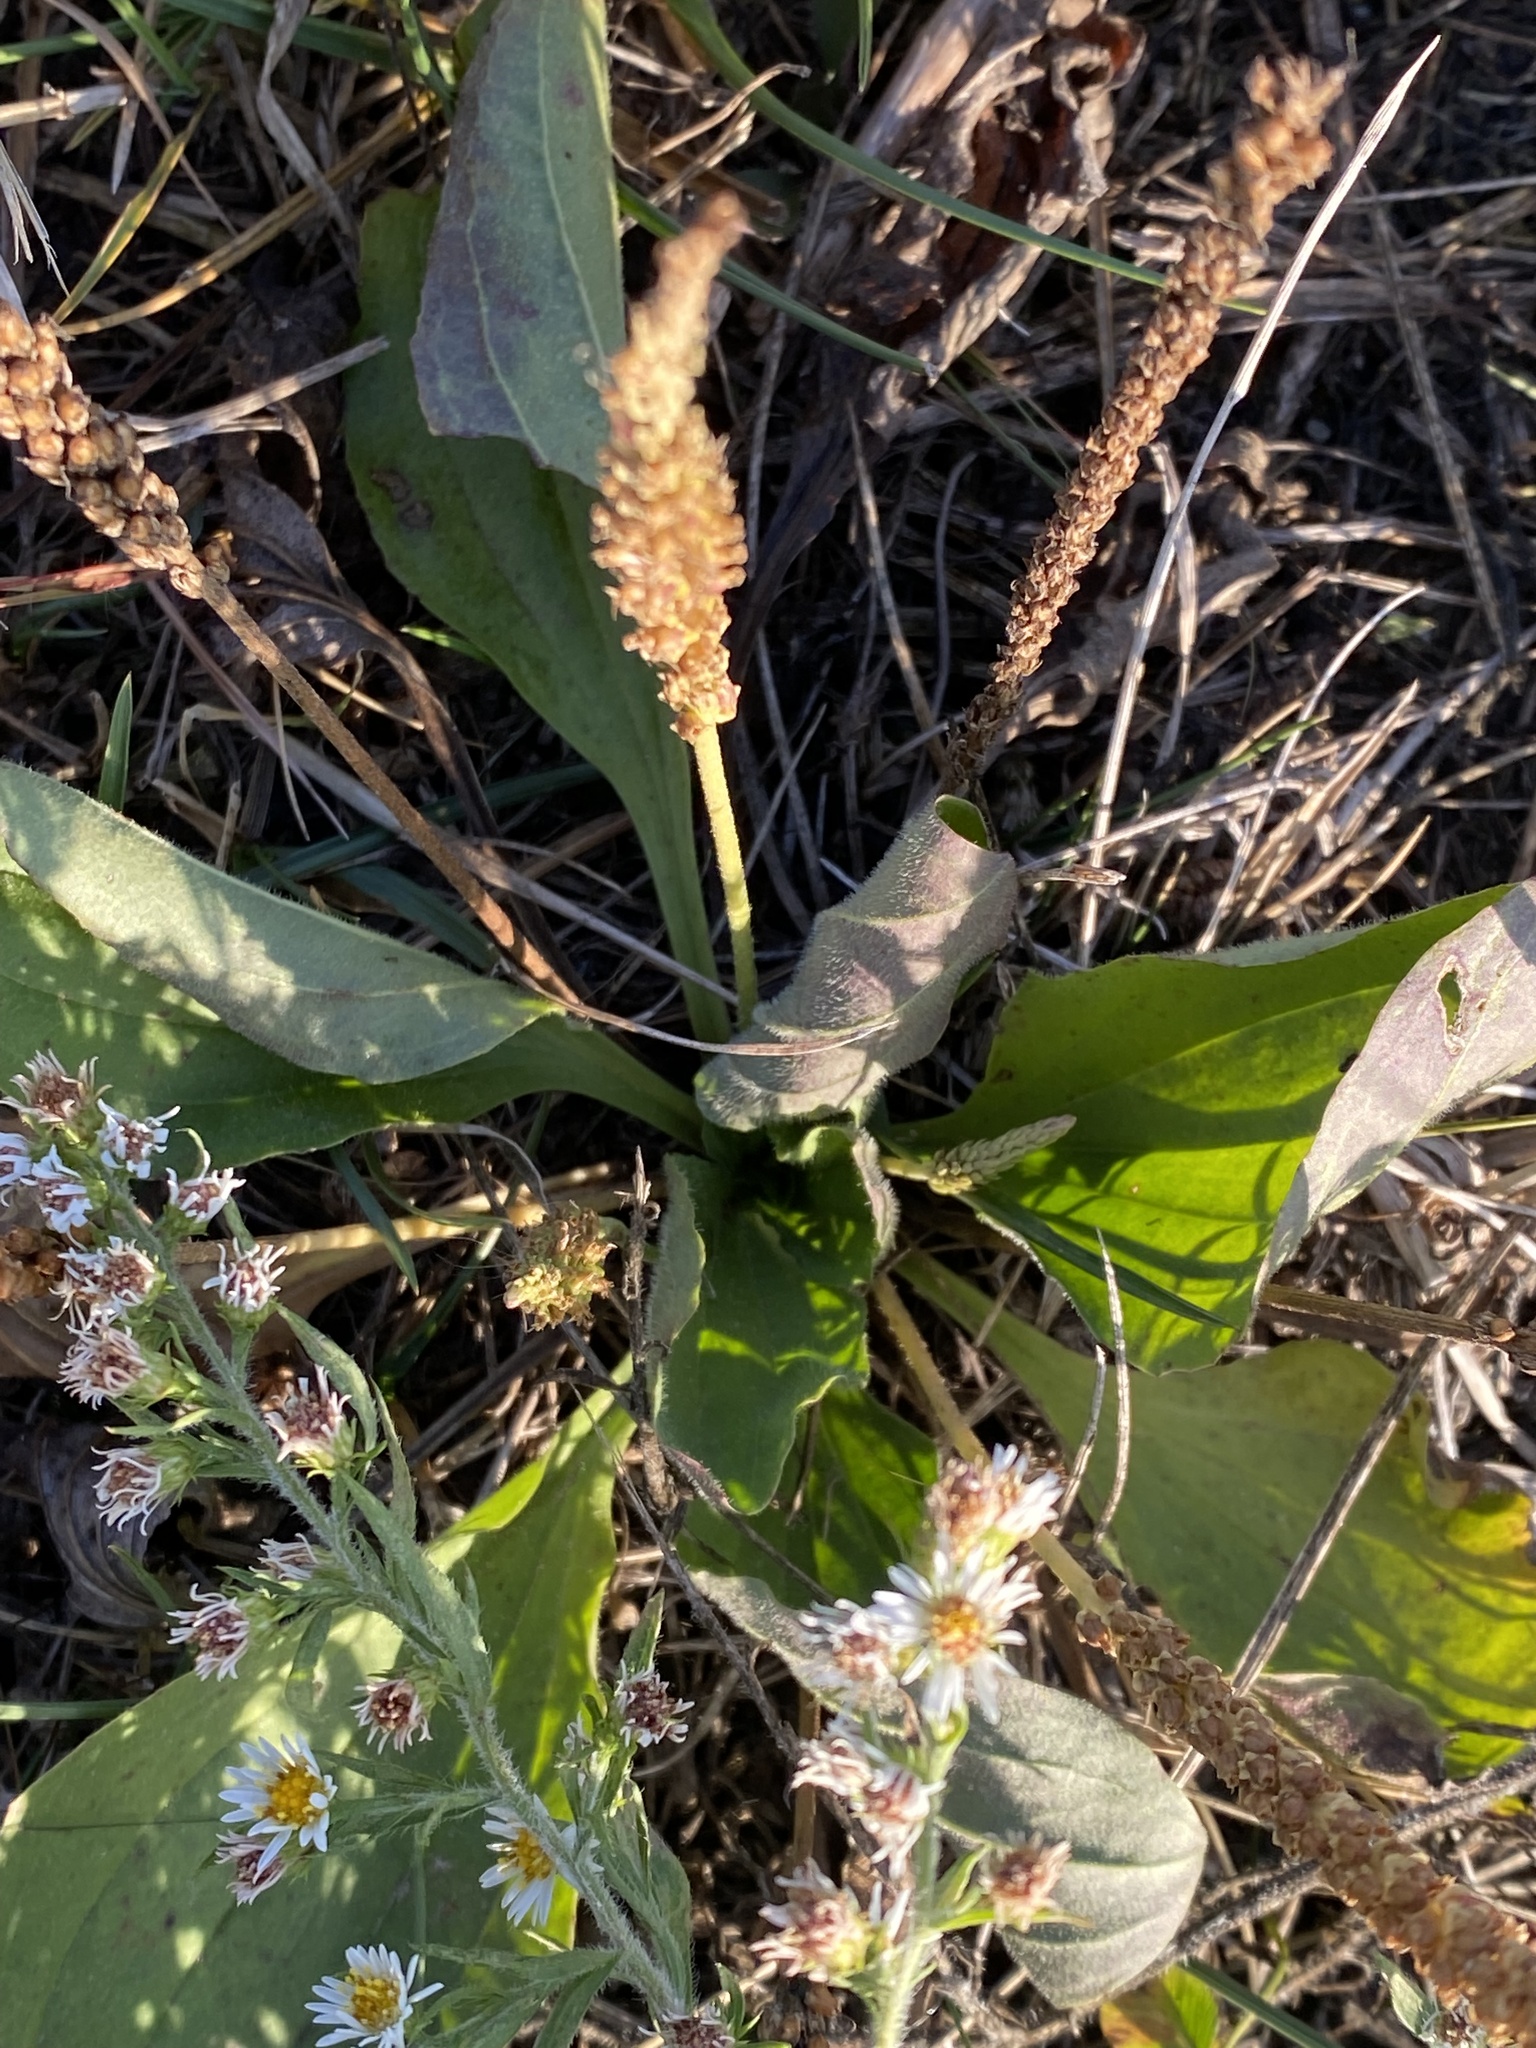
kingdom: Plantae
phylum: Tracheophyta
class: Magnoliopsida
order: Lamiales
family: Plantaginaceae
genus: Plantago
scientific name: Plantago major
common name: Common plantain
